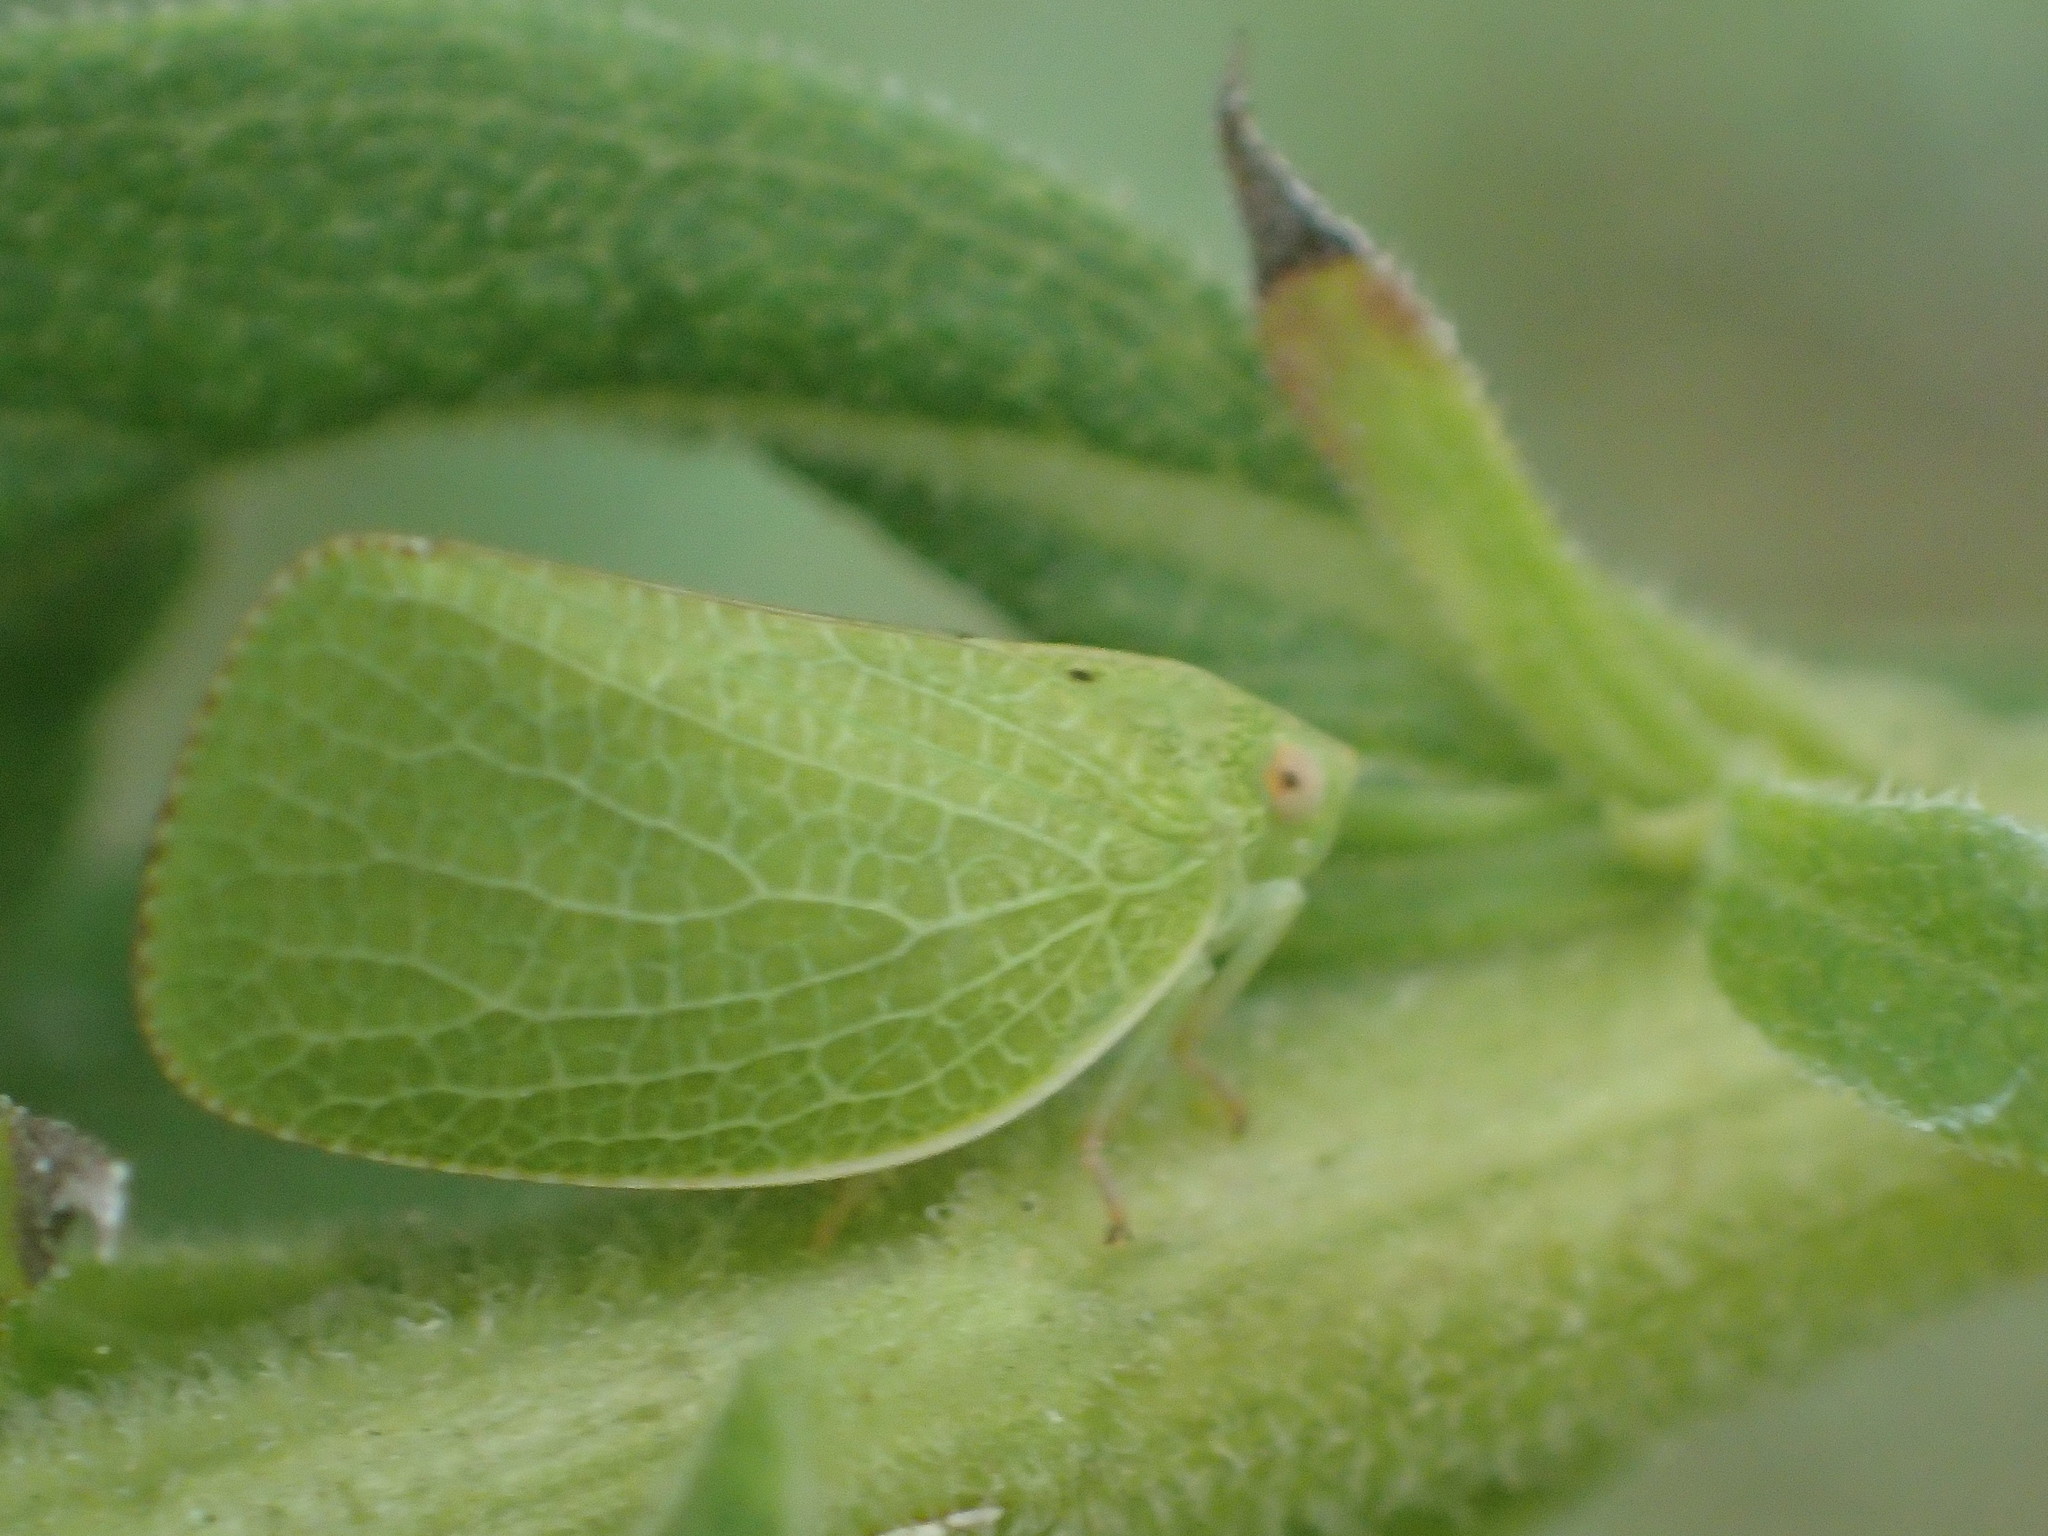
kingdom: Animalia
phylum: Arthropoda
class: Insecta
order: Hemiptera
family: Acanaloniidae
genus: Acanalonia
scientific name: Acanalonia conica
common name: Green cone-headed planthopper
